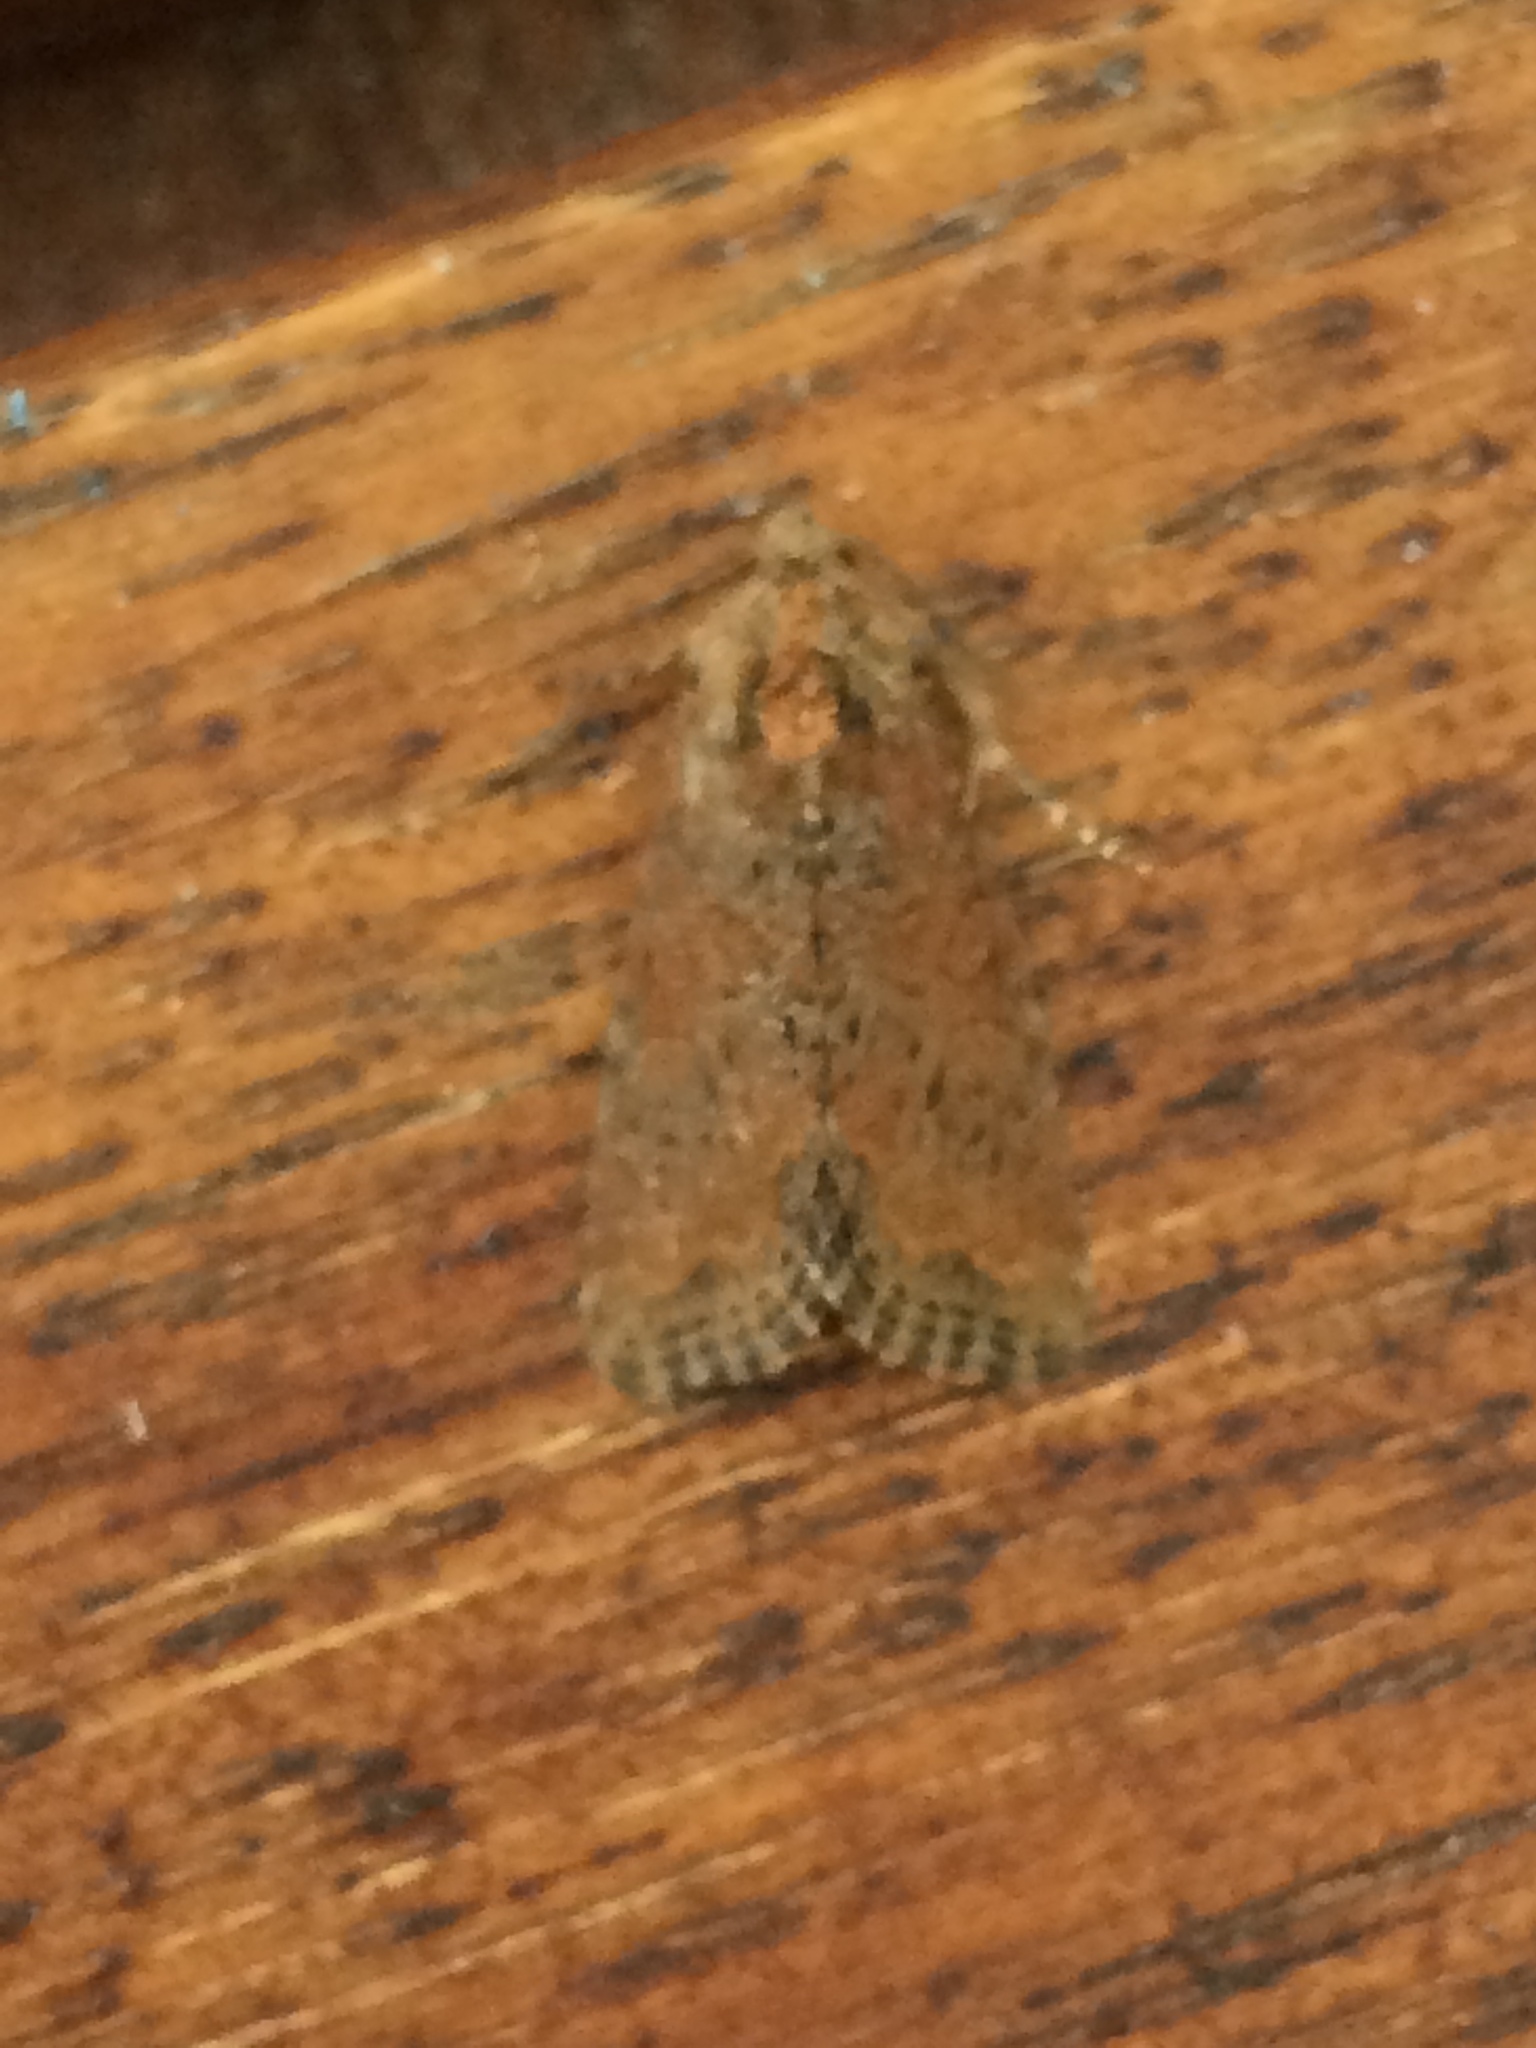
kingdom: Animalia
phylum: Arthropoda
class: Insecta
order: Lepidoptera
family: Noctuidae
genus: Mesoligia
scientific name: Mesoligia furuncula
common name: Cloaked minor
